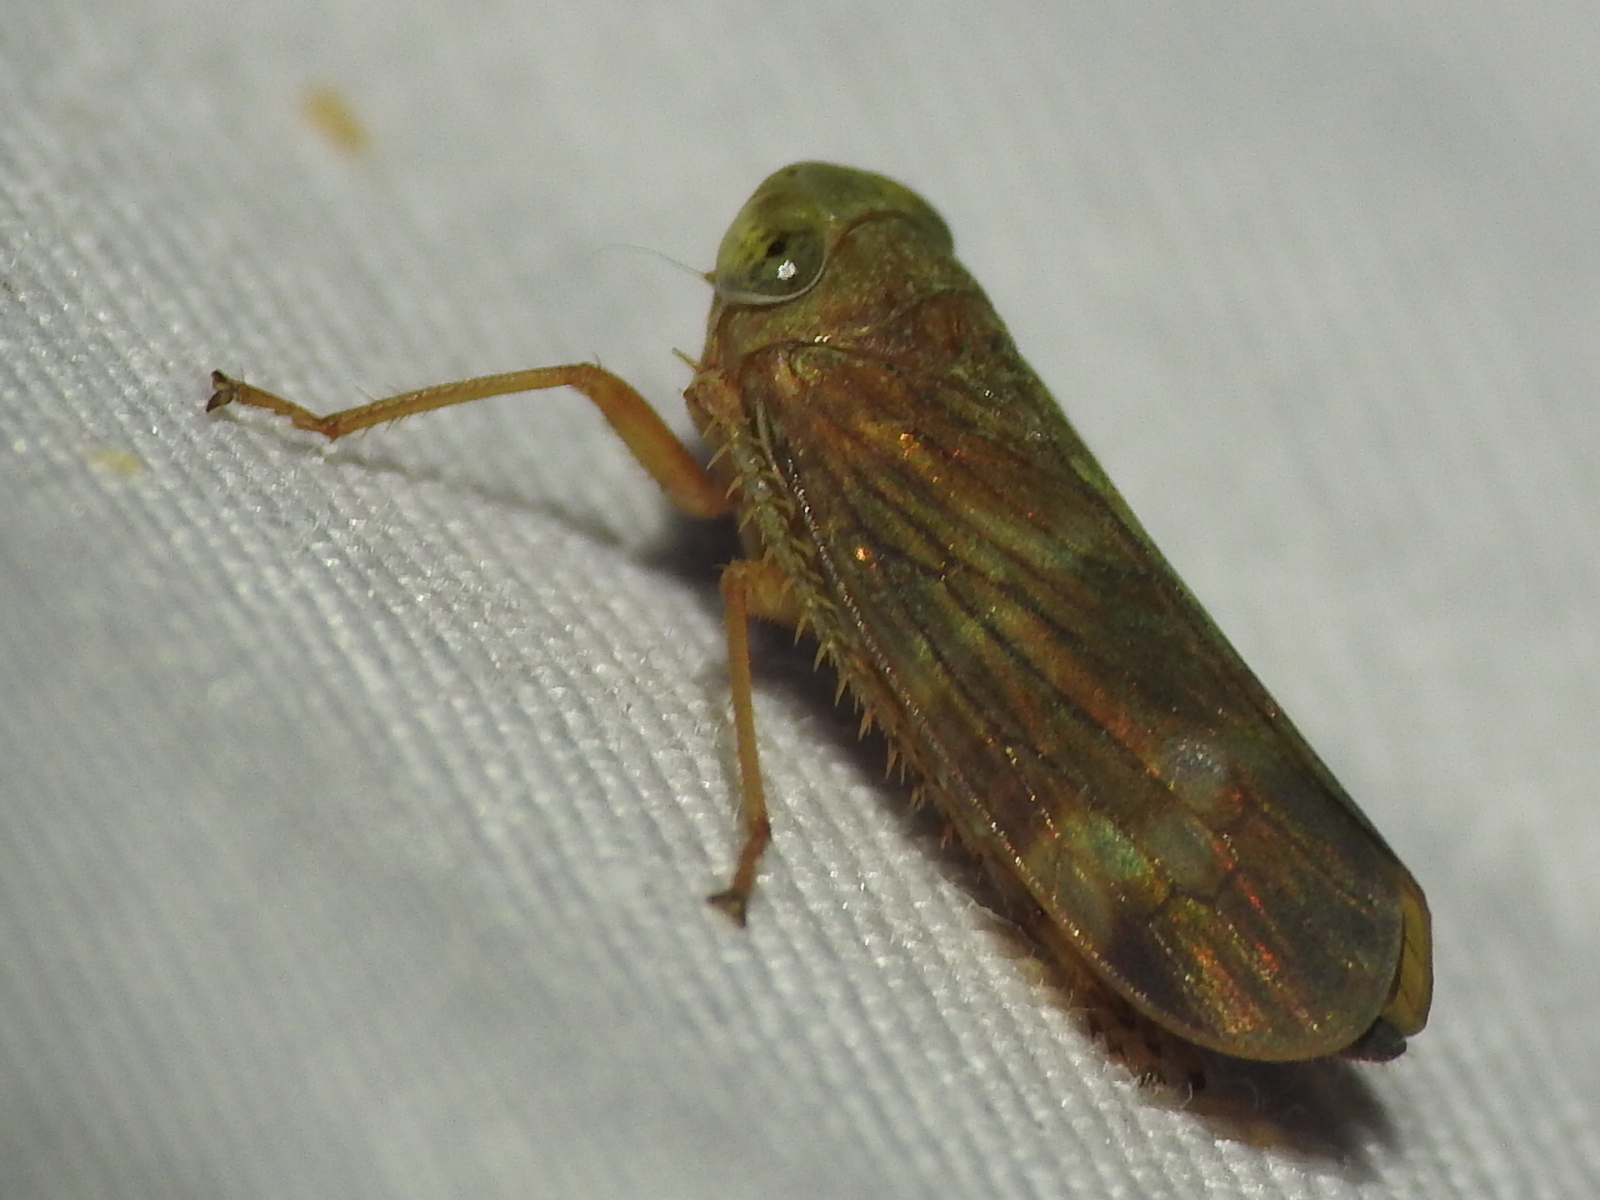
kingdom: Animalia
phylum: Arthropoda
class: Insecta
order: Hemiptera
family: Cicadellidae
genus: Jikradia
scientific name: Jikradia olitoria
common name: Coppery leafhopper
